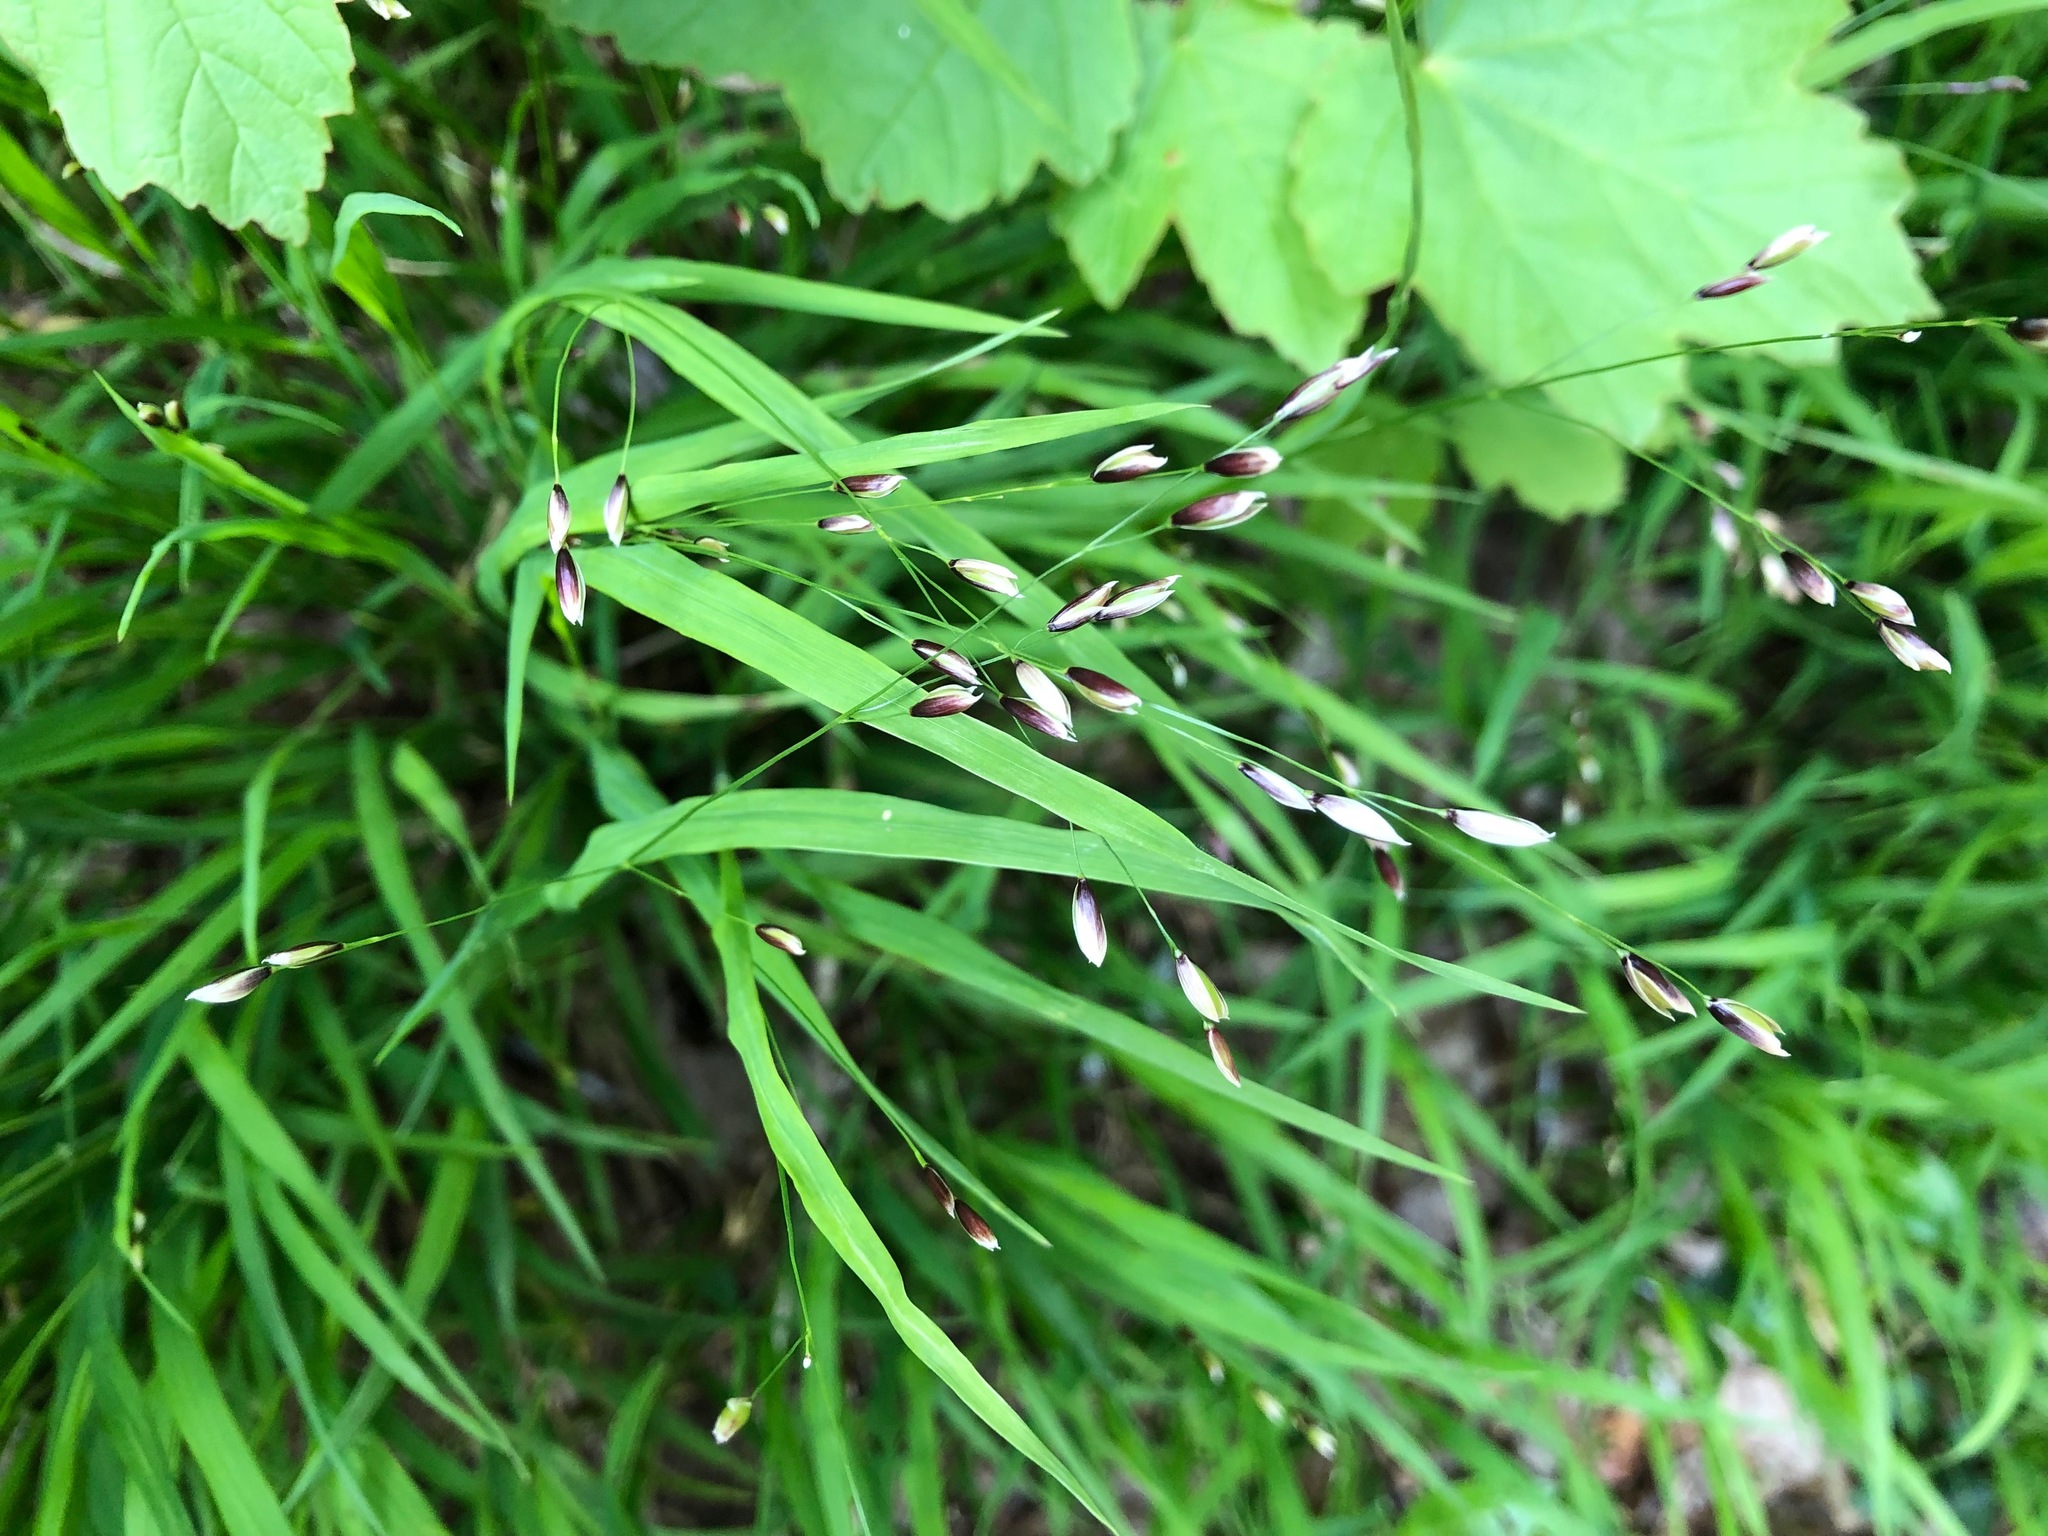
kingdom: Plantae
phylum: Tracheophyta
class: Liliopsida
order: Poales
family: Poaceae
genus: Melica
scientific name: Melica uniflora
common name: Wood melick
